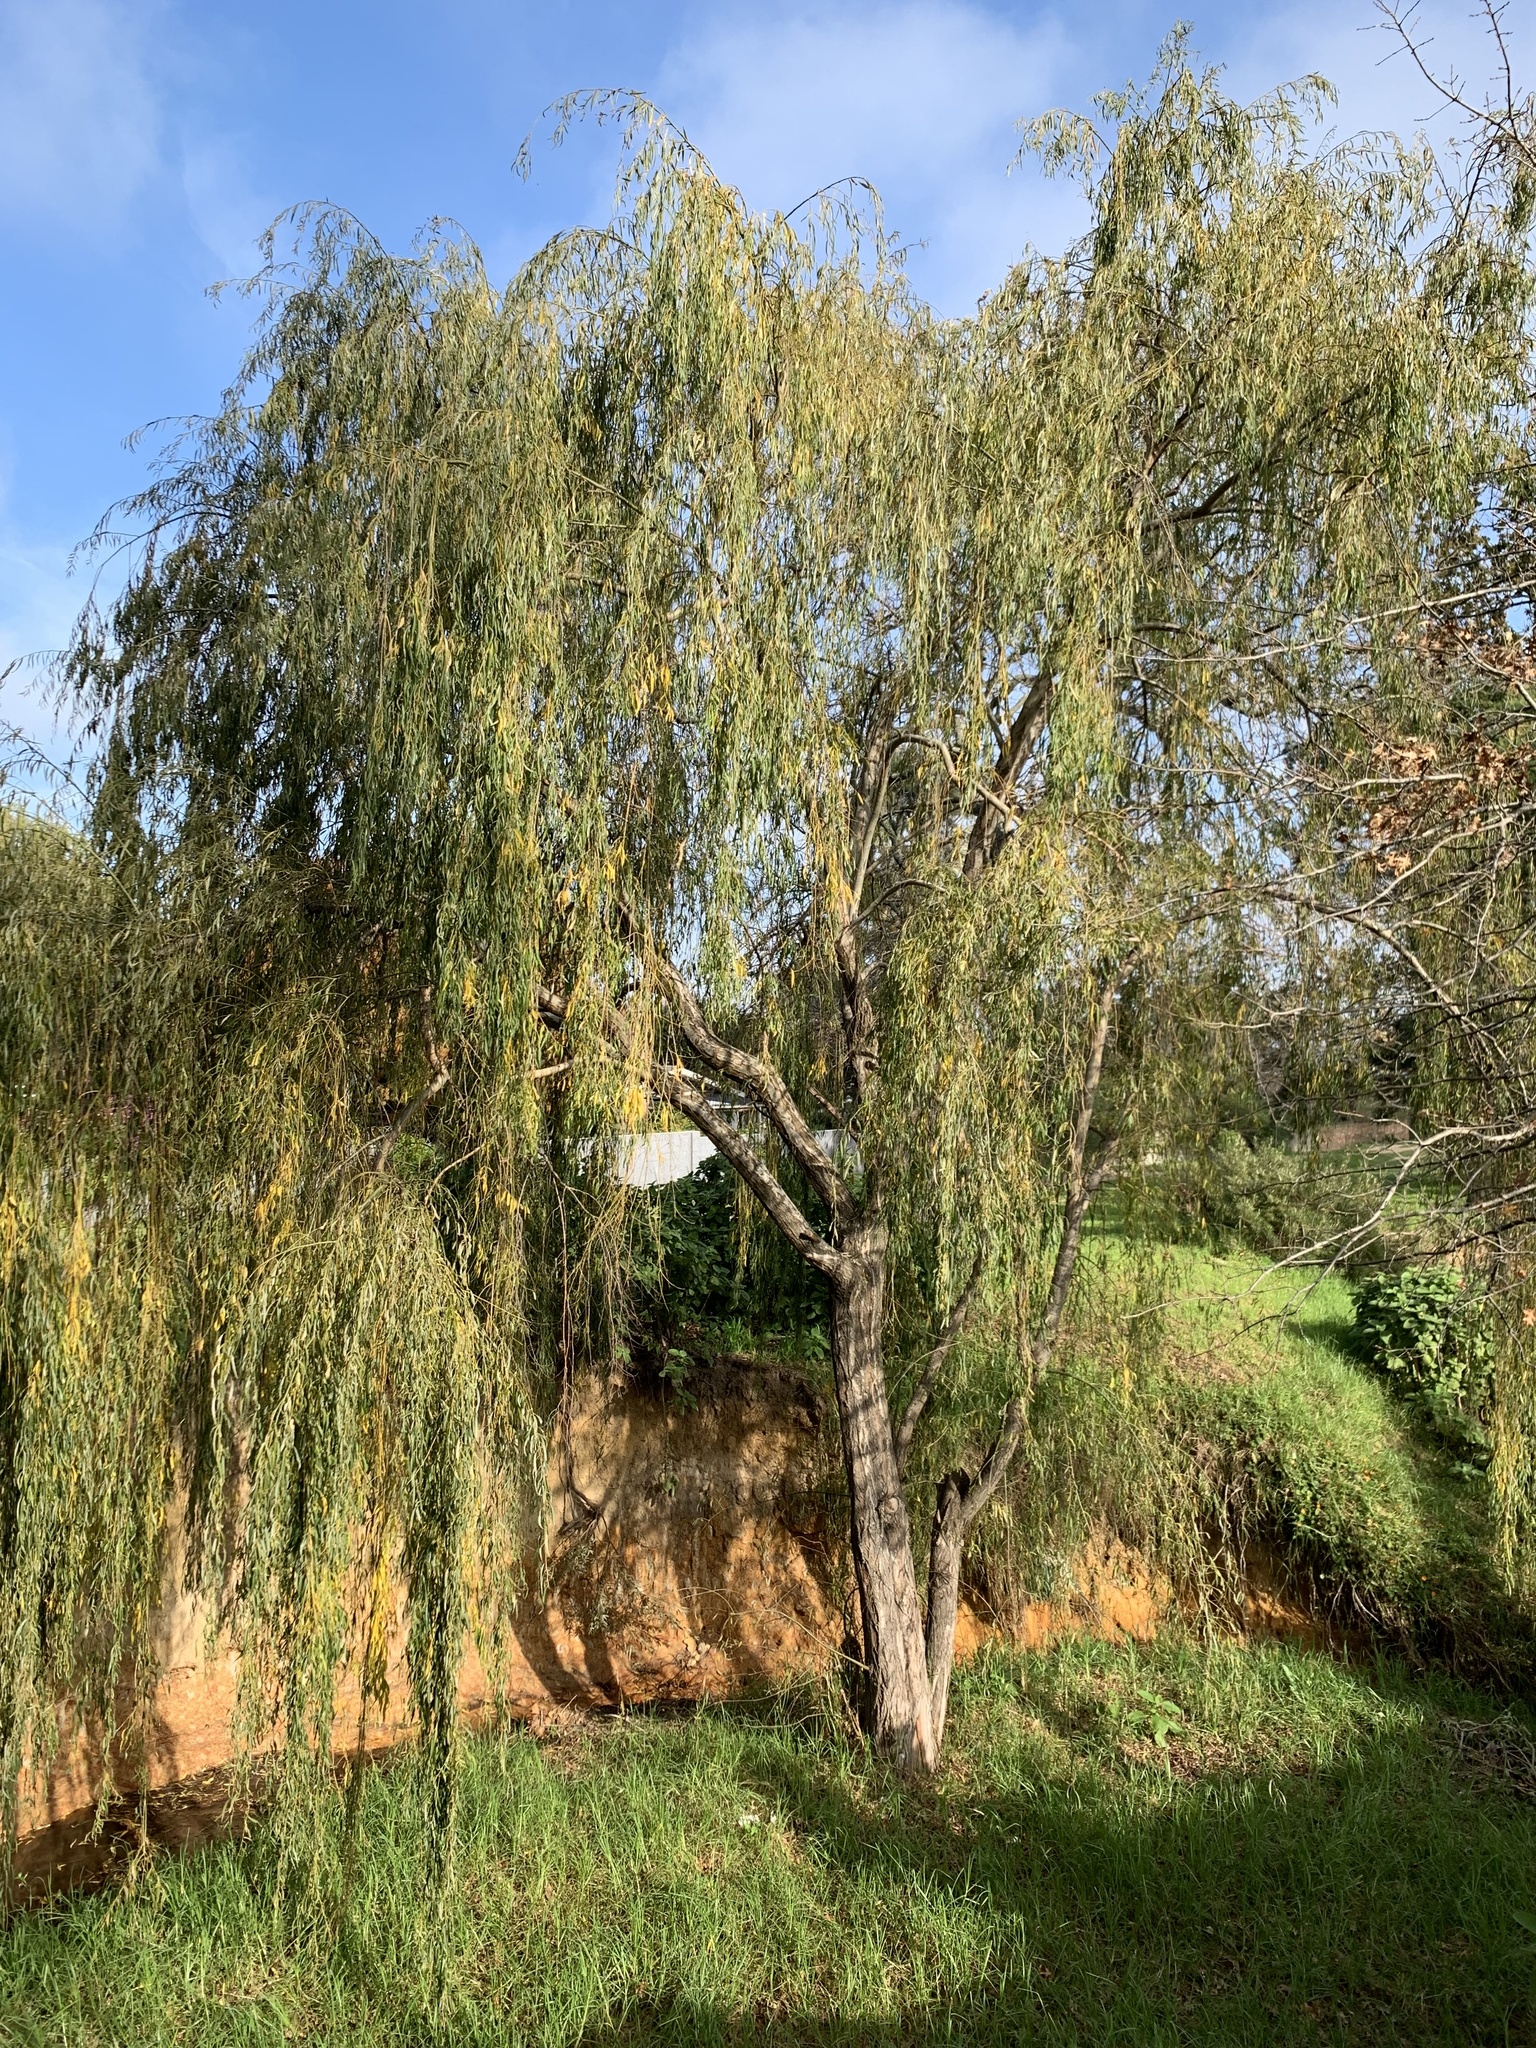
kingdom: Plantae
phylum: Tracheophyta
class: Magnoliopsida
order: Malpighiales
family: Salicaceae
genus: Salix
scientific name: Salix babylonica
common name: Weeping willow
